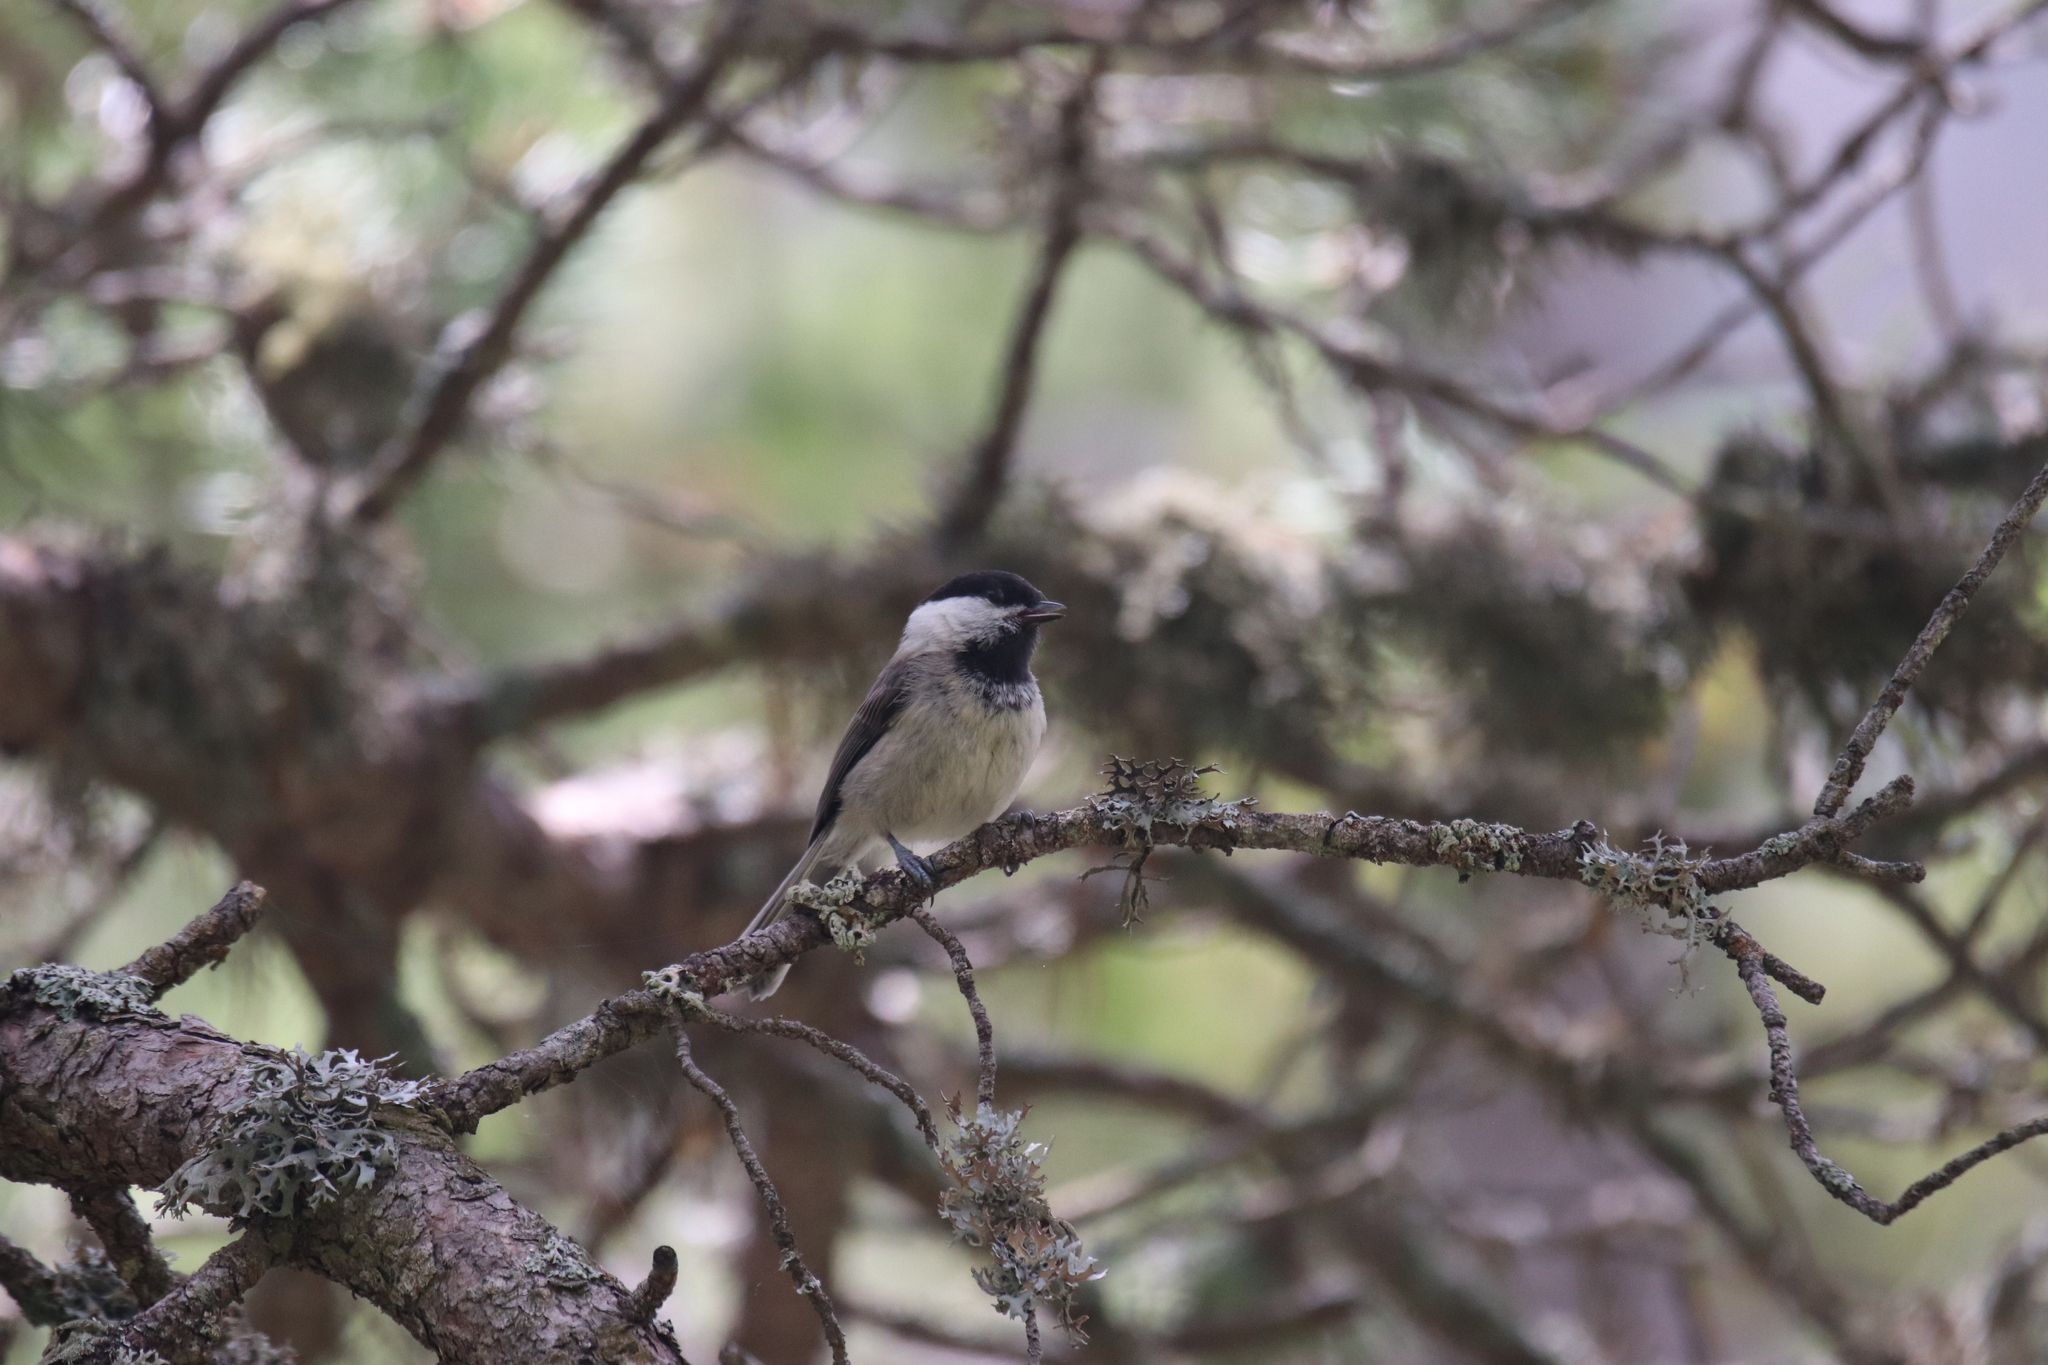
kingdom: Animalia
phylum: Chordata
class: Aves
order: Passeriformes
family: Paridae
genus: Poecile
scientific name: Poecile montanus
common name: Willow tit
